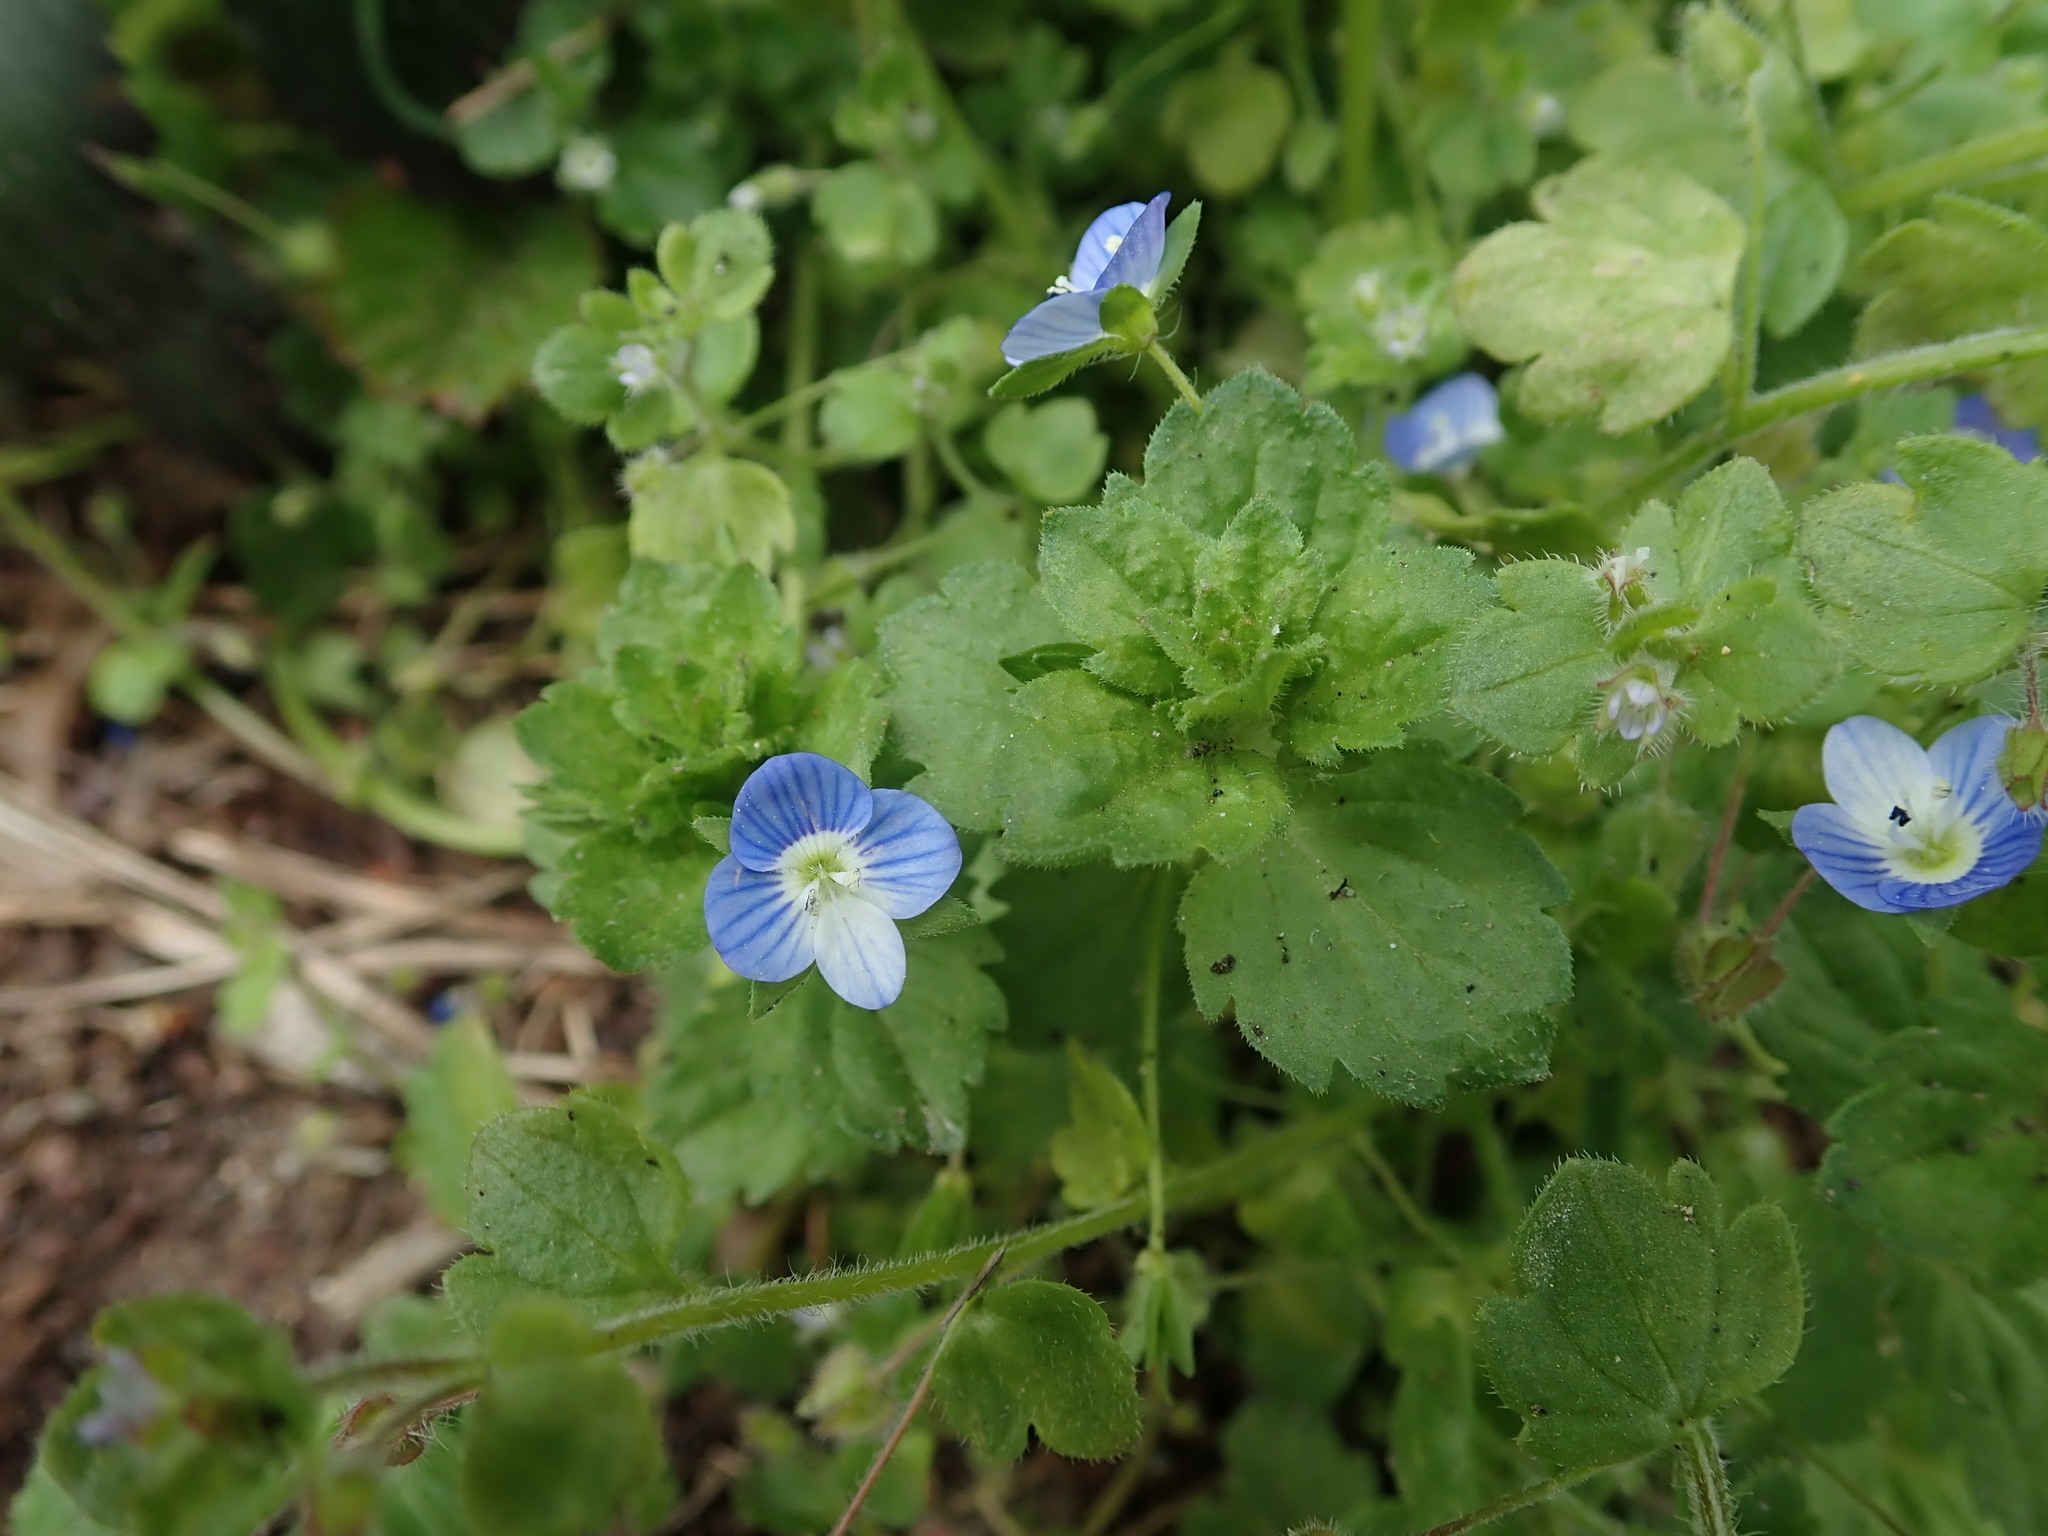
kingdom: Plantae
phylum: Tracheophyta
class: Magnoliopsida
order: Lamiales
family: Plantaginaceae
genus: Veronica
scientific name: Veronica persica
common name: Common field-speedwell
